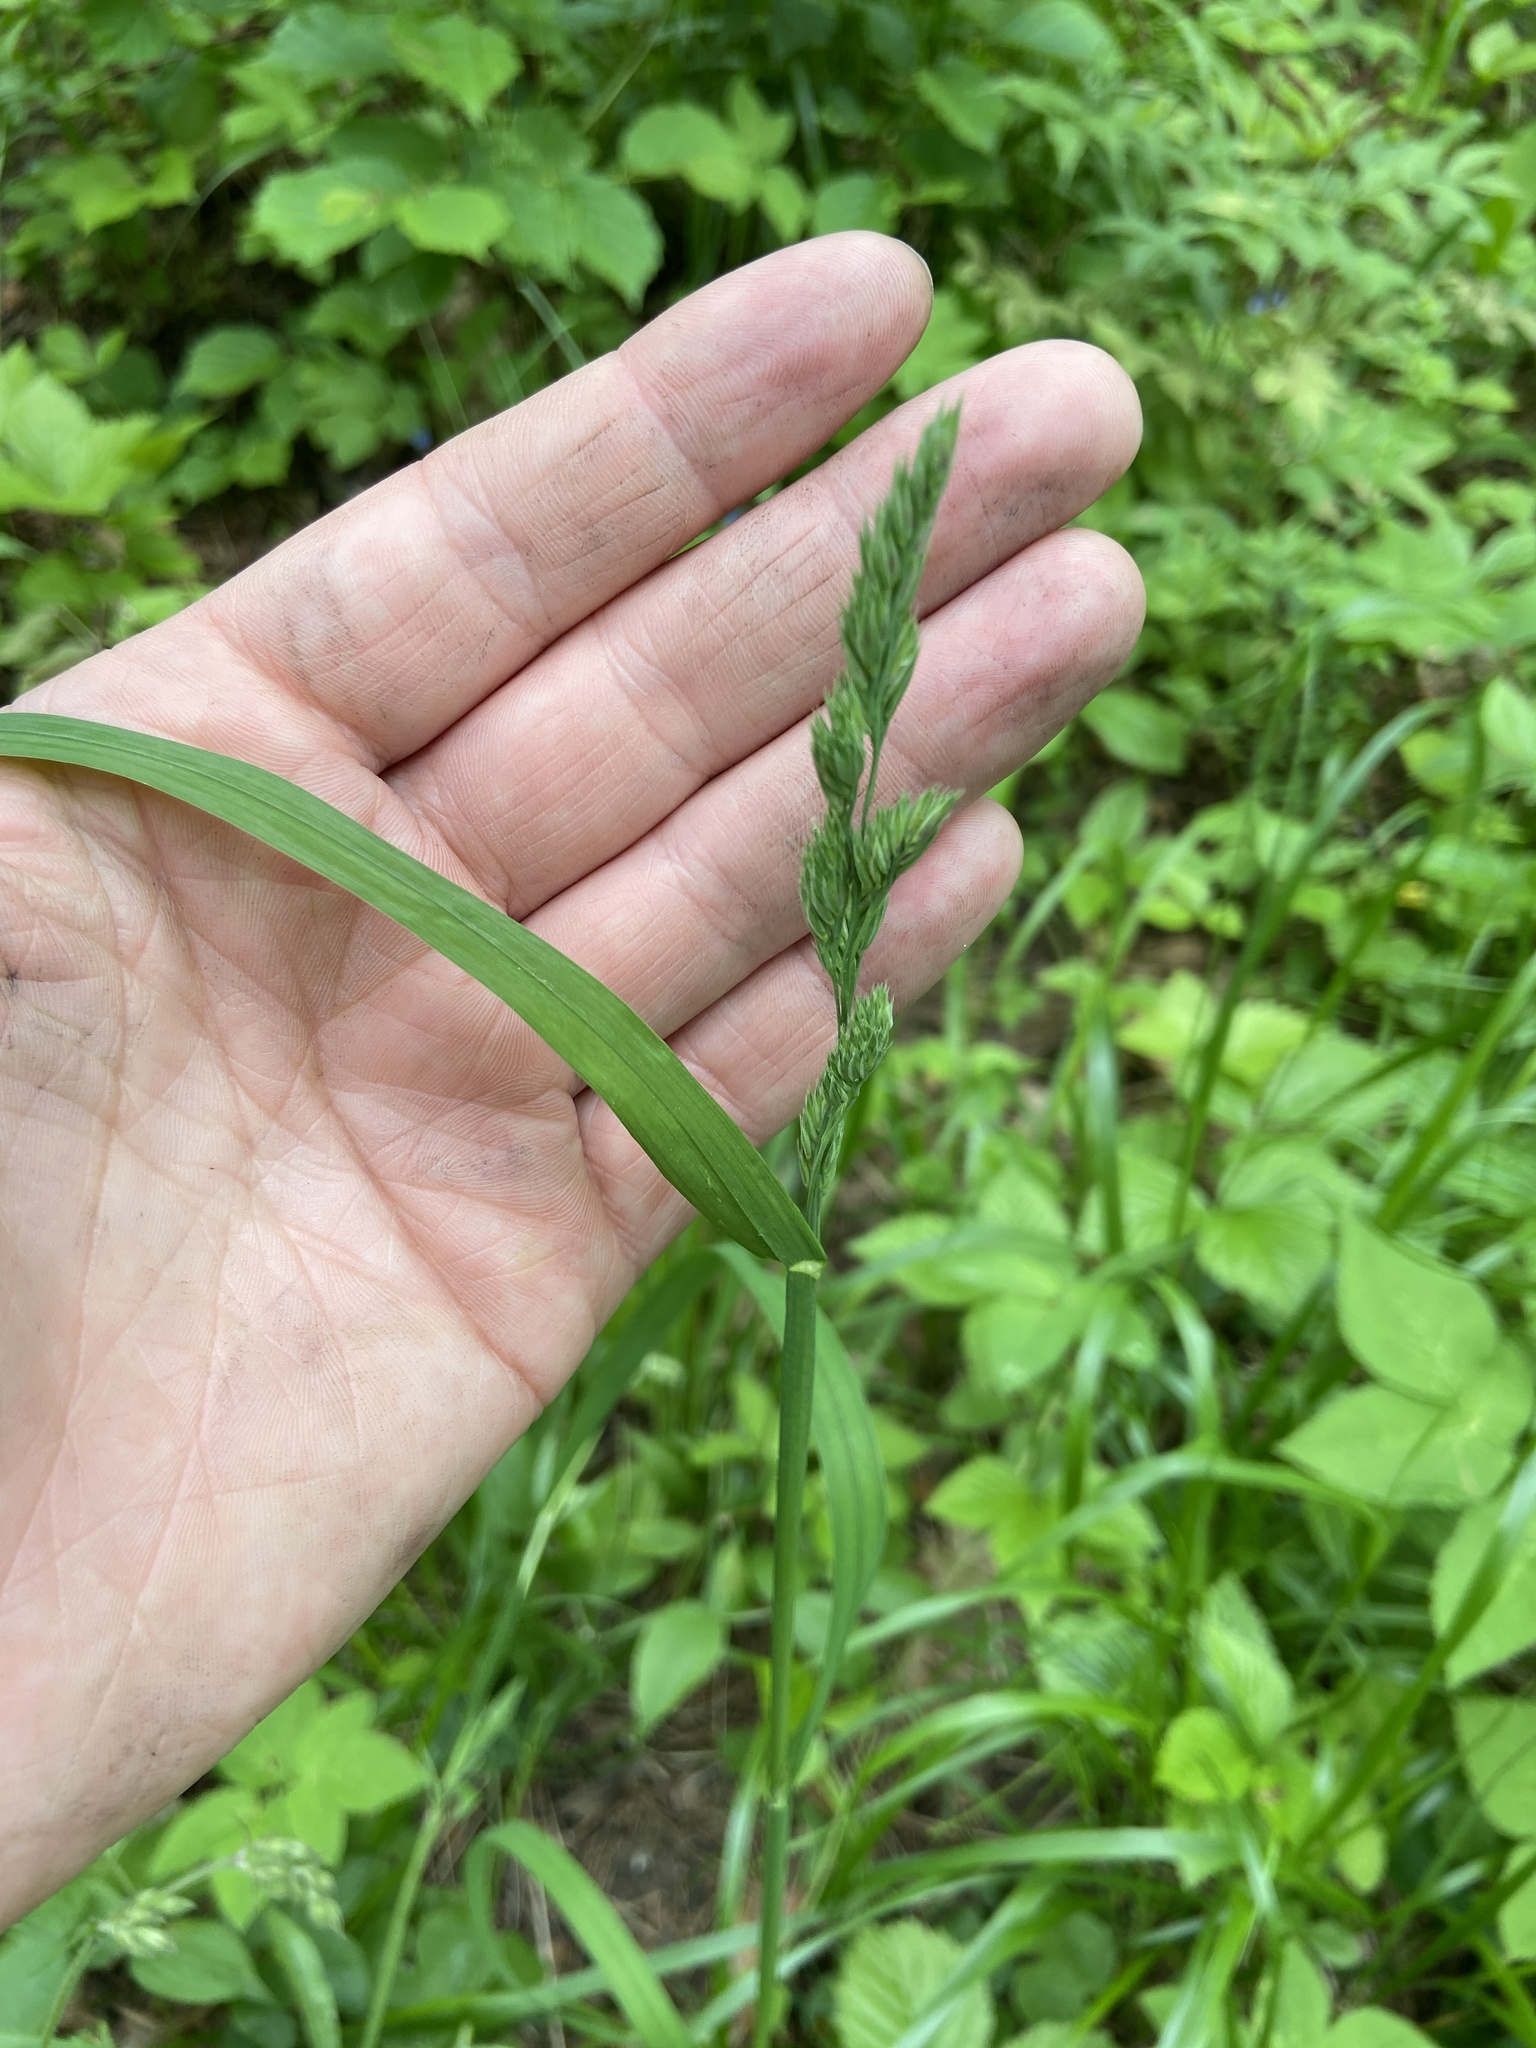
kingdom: Plantae
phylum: Tracheophyta
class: Liliopsida
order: Poales
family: Poaceae
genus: Dactylis
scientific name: Dactylis glomerata
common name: Orchardgrass
